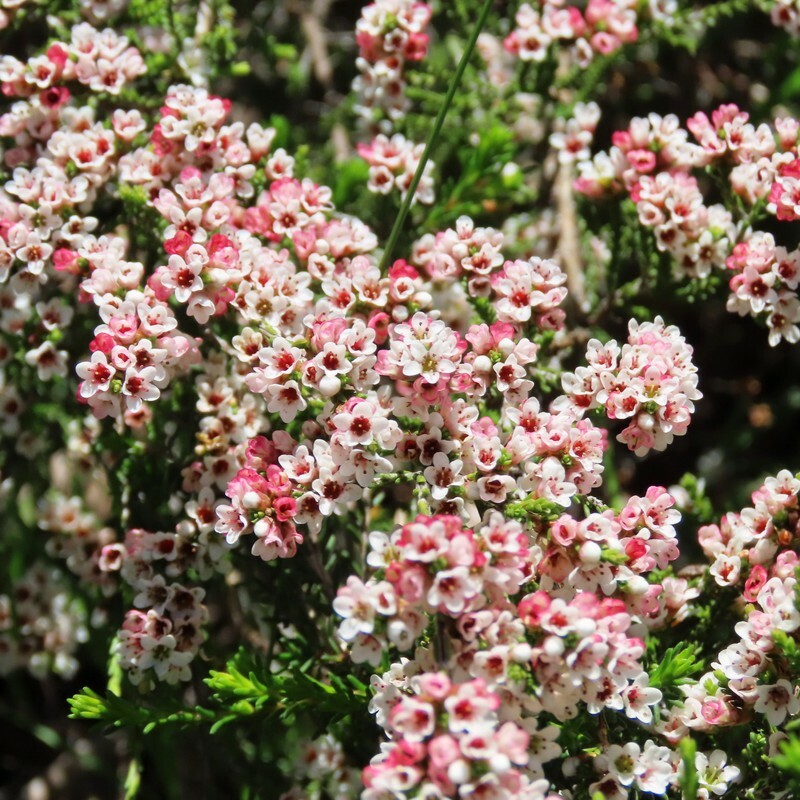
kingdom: Plantae
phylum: Tracheophyta
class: Magnoliopsida
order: Myrtales
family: Myrtaceae
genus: Micromyrtus
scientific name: Micromyrtus ciliata
